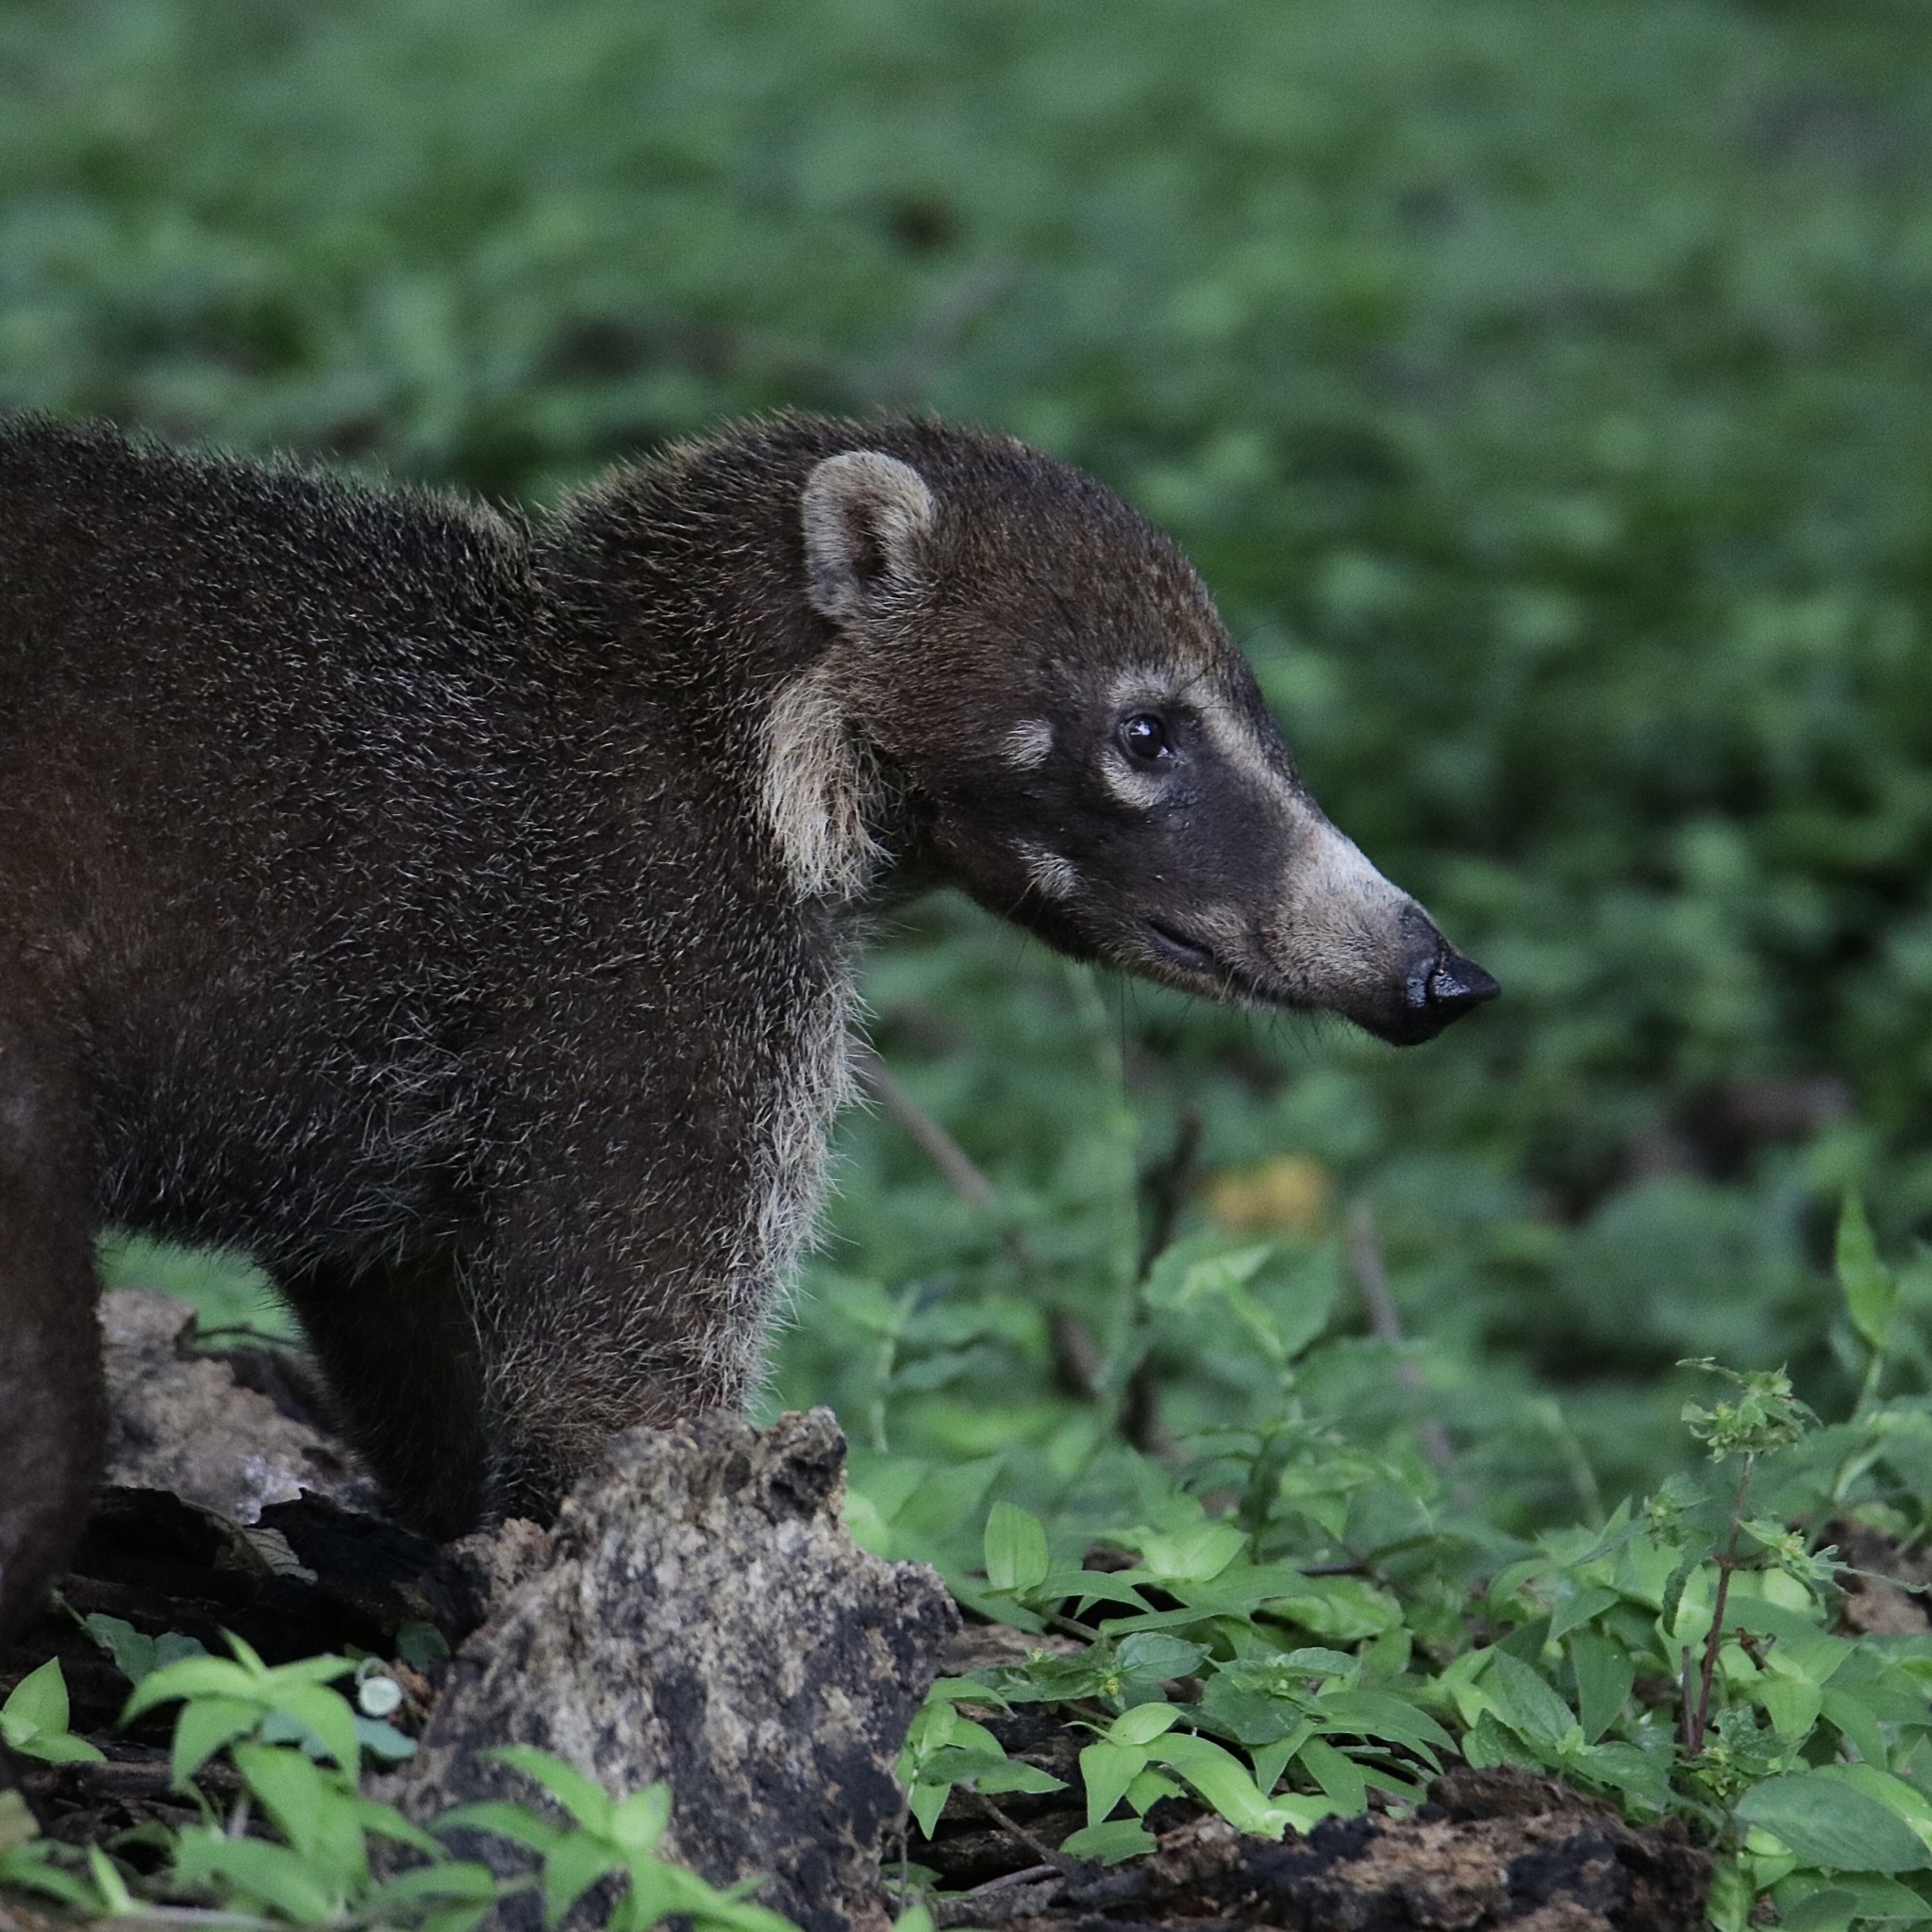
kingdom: Animalia
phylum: Chordata
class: Mammalia
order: Carnivora
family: Procyonidae
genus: Nasua
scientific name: Nasua narica
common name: White-nosed coati
